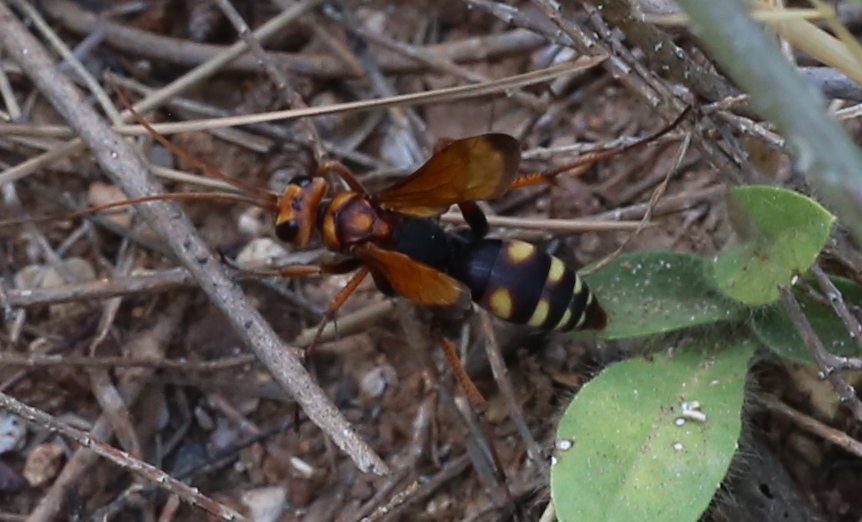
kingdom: Animalia
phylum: Arthropoda
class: Insecta
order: Hymenoptera
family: Pompilidae
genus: Cryptocheilus
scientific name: Cryptocheilus octomaculatus
